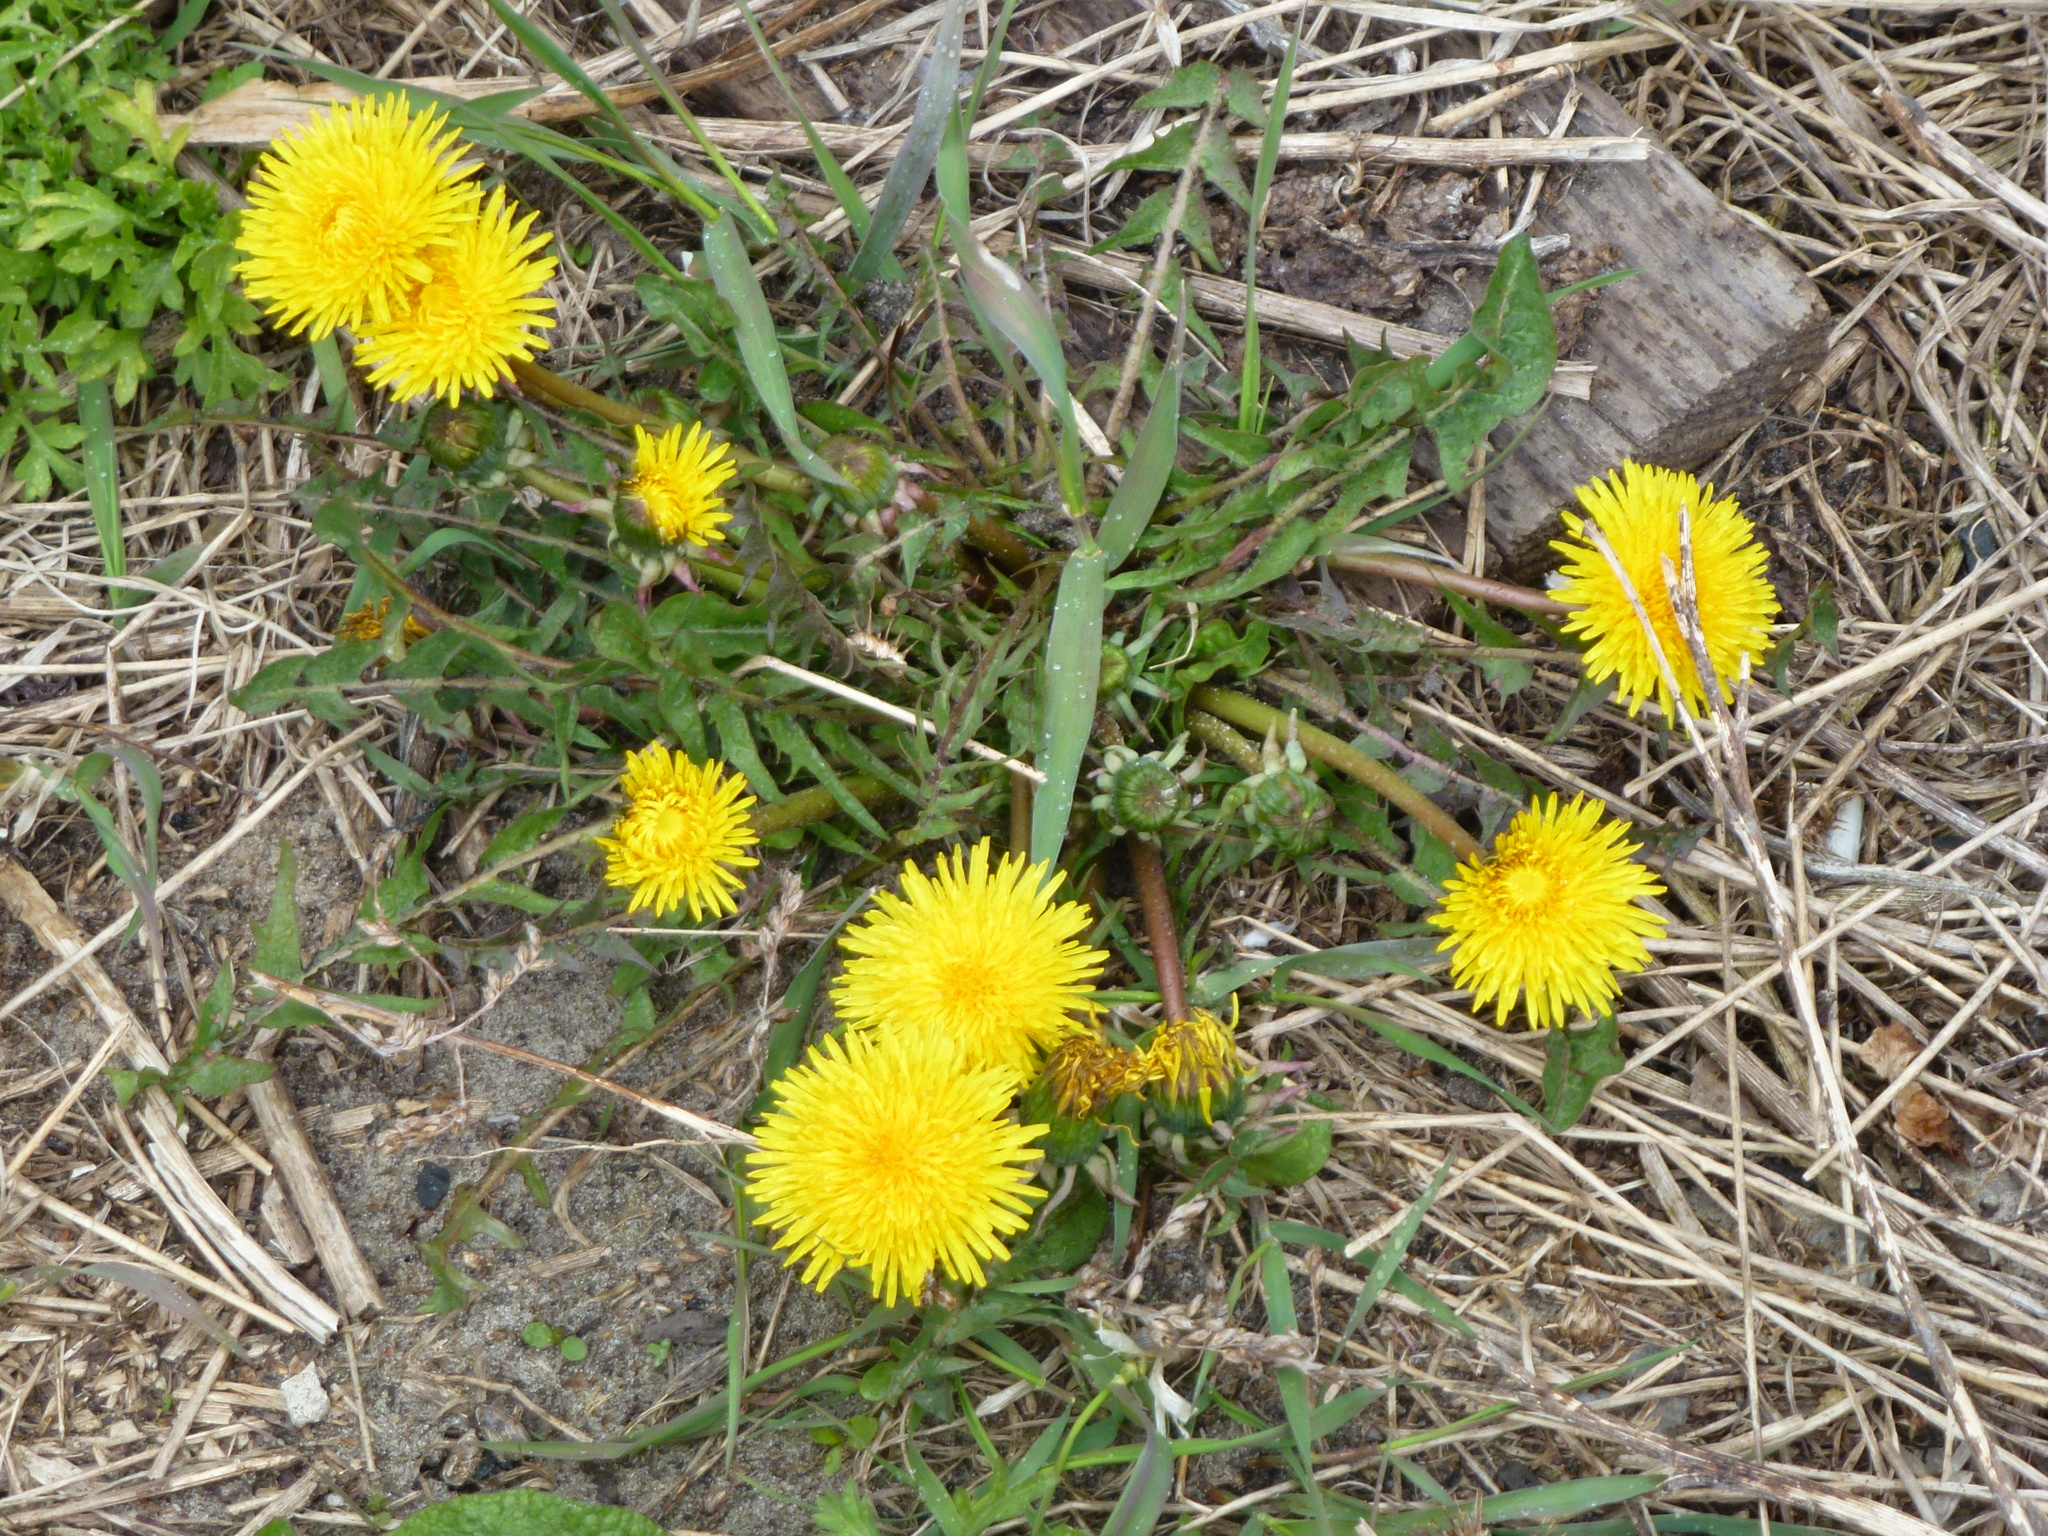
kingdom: Plantae
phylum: Tracheophyta
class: Magnoliopsida
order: Asterales
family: Asteraceae
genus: Taraxacum
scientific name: Taraxacum officinale
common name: Common dandelion
